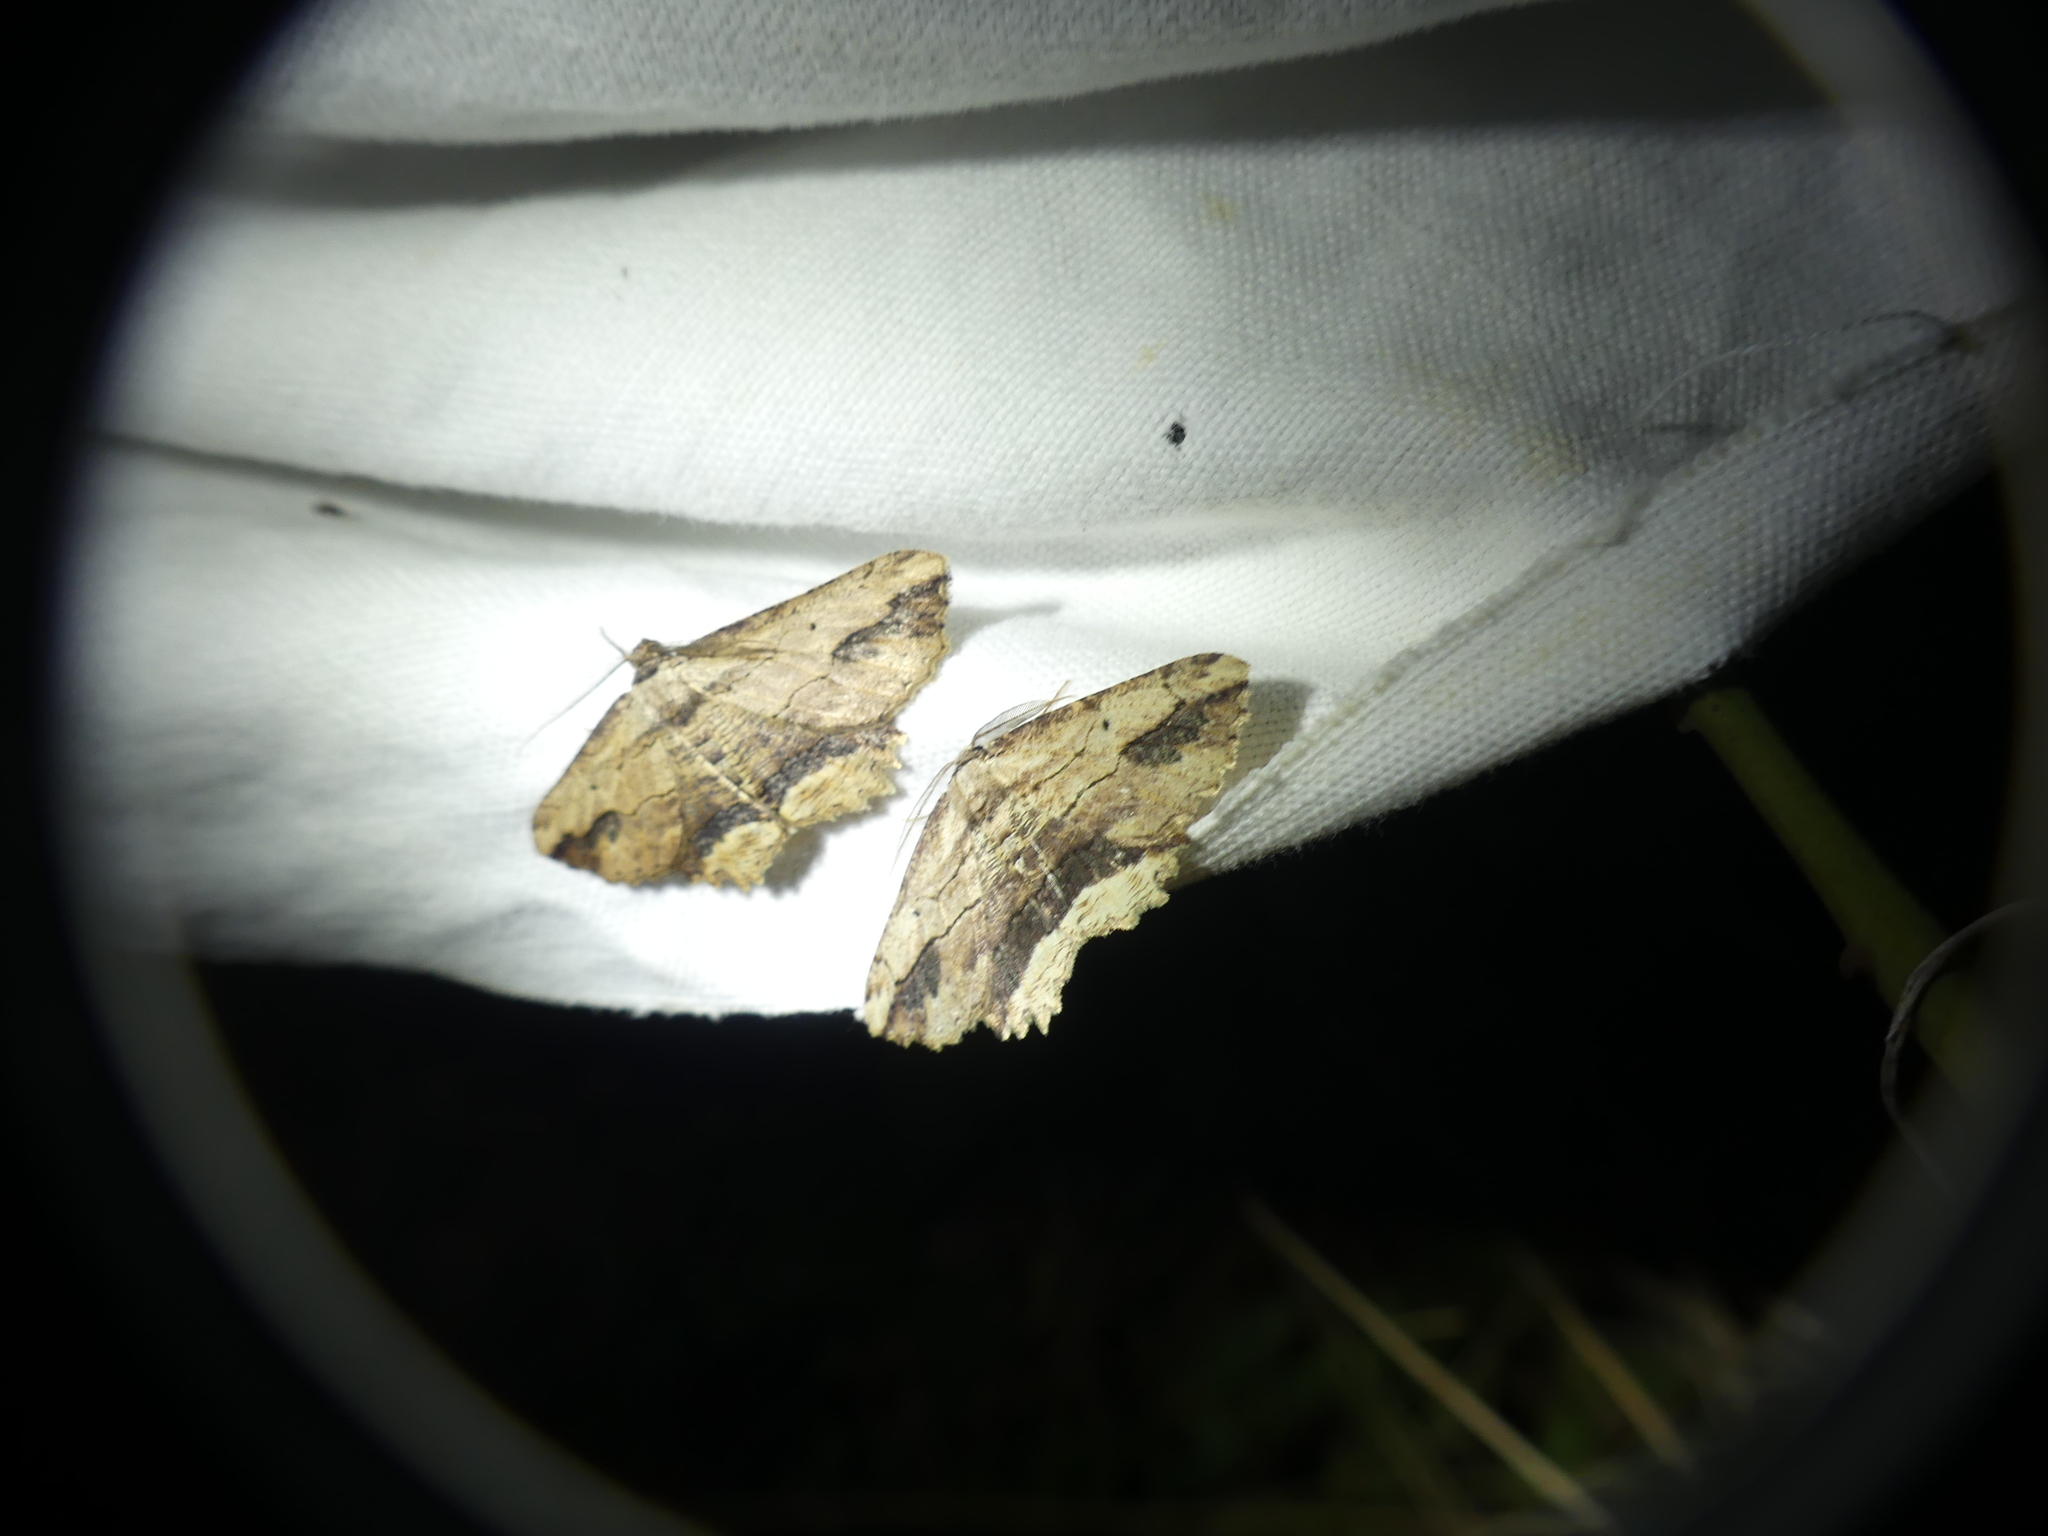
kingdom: Animalia
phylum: Arthropoda
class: Insecta
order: Lepidoptera
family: Geometridae
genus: Menophra
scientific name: Menophra abruptaria
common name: Waved umber
